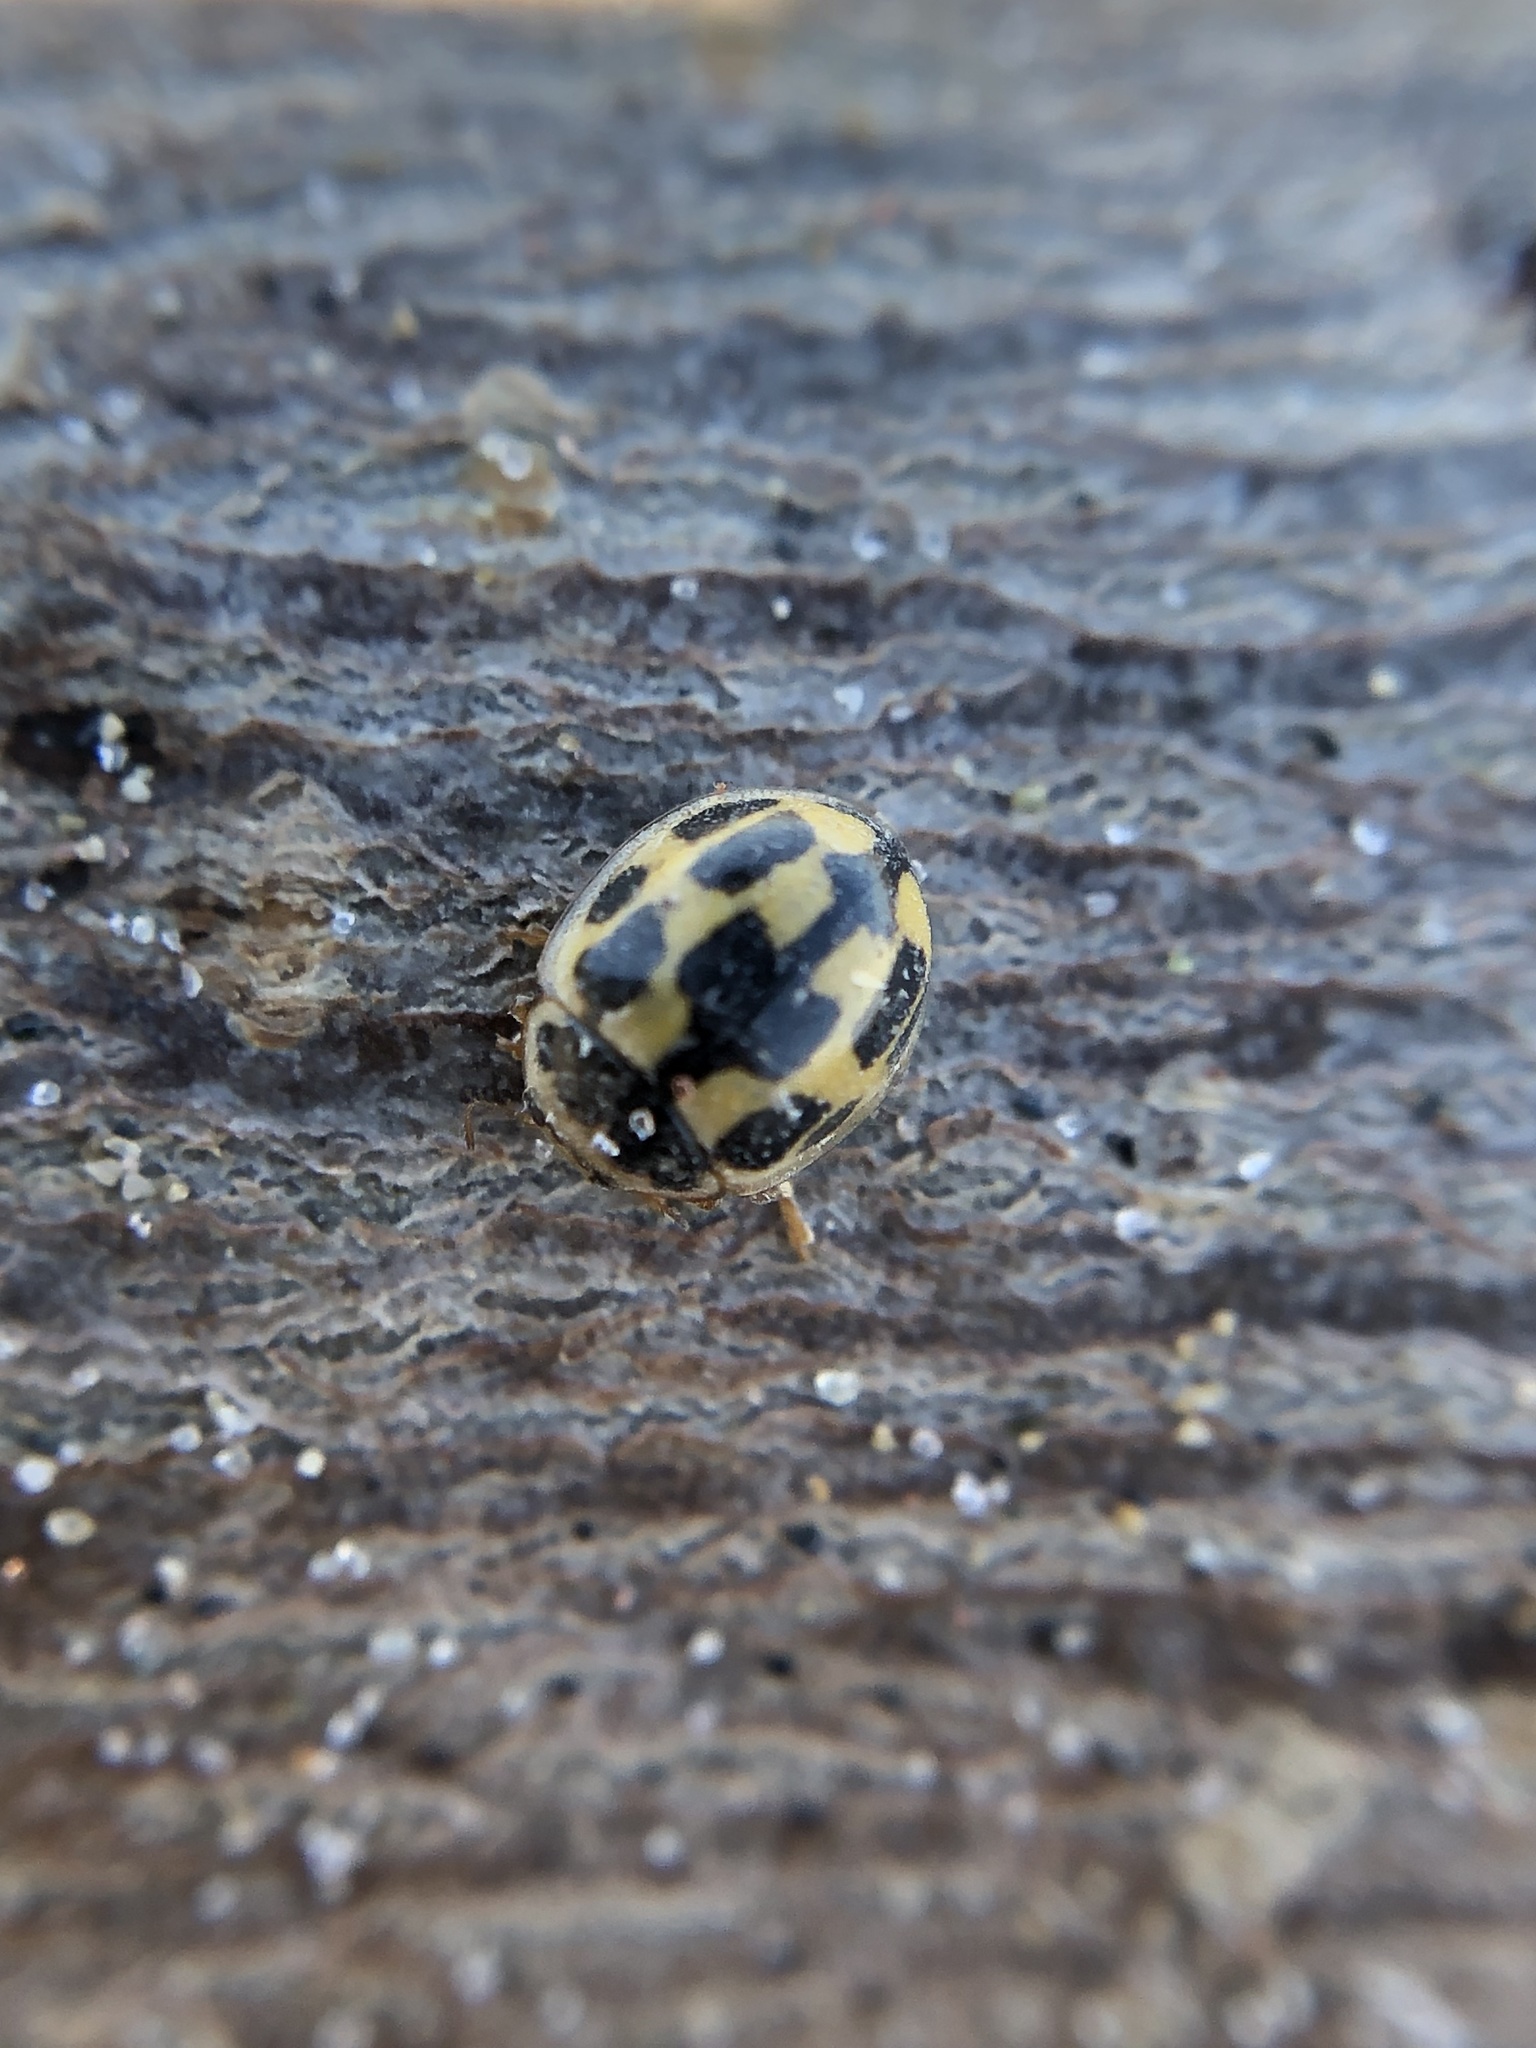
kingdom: Animalia
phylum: Arthropoda
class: Insecta
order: Coleoptera
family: Coccinellidae
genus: Propylaea
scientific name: Propylaea quatuordecimpunctata
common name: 14-spotted ladybird beetle
